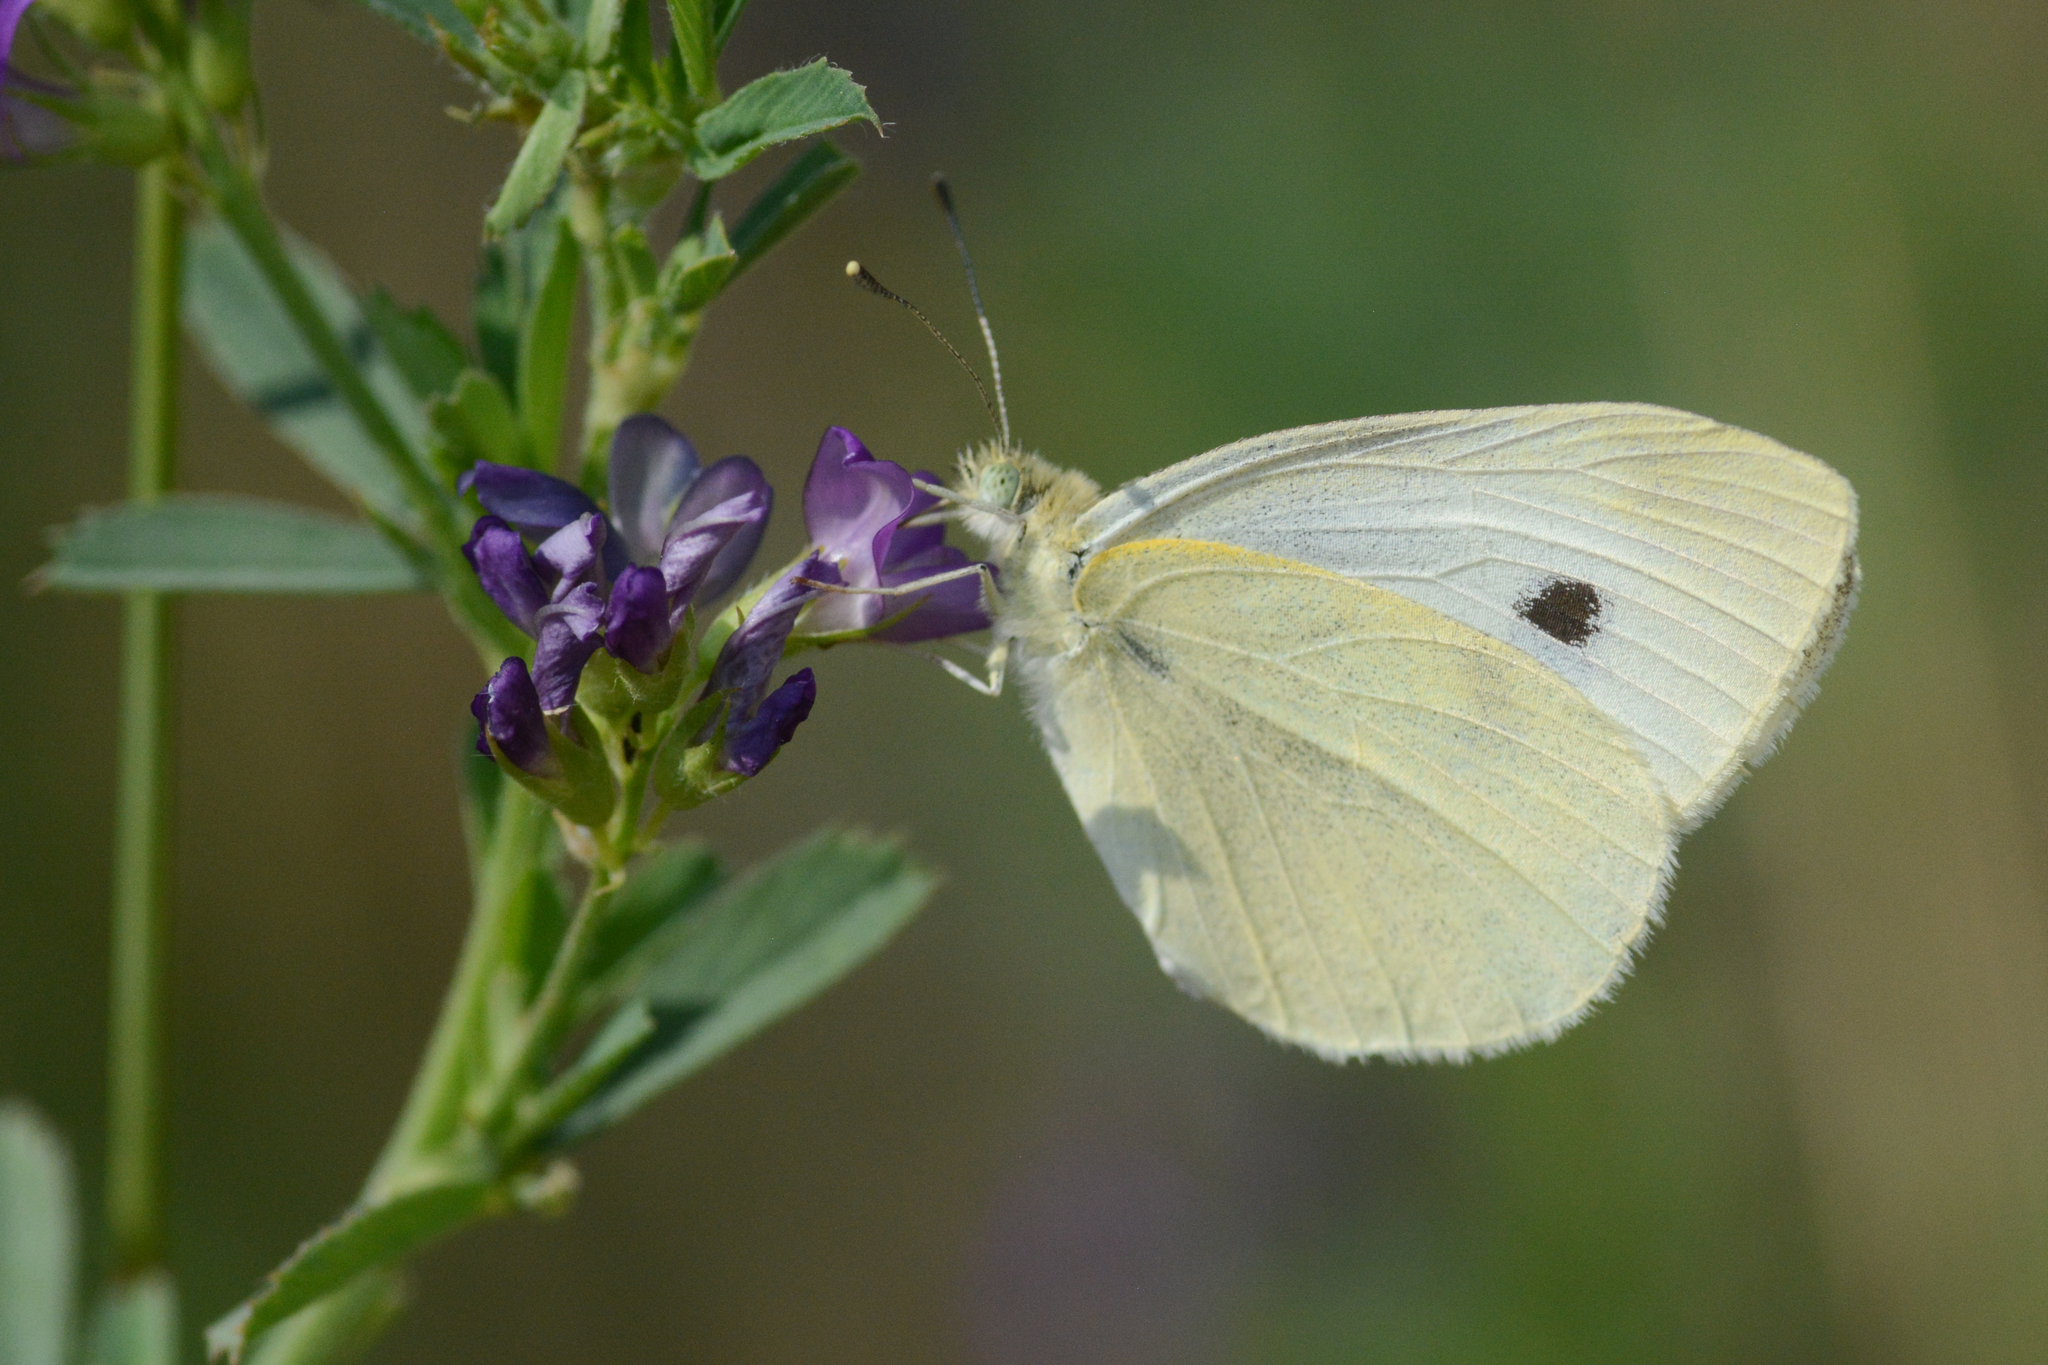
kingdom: Animalia
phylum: Arthropoda
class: Insecta
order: Lepidoptera
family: Pieridae
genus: Pieris
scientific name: Pieris rapae
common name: Small white
